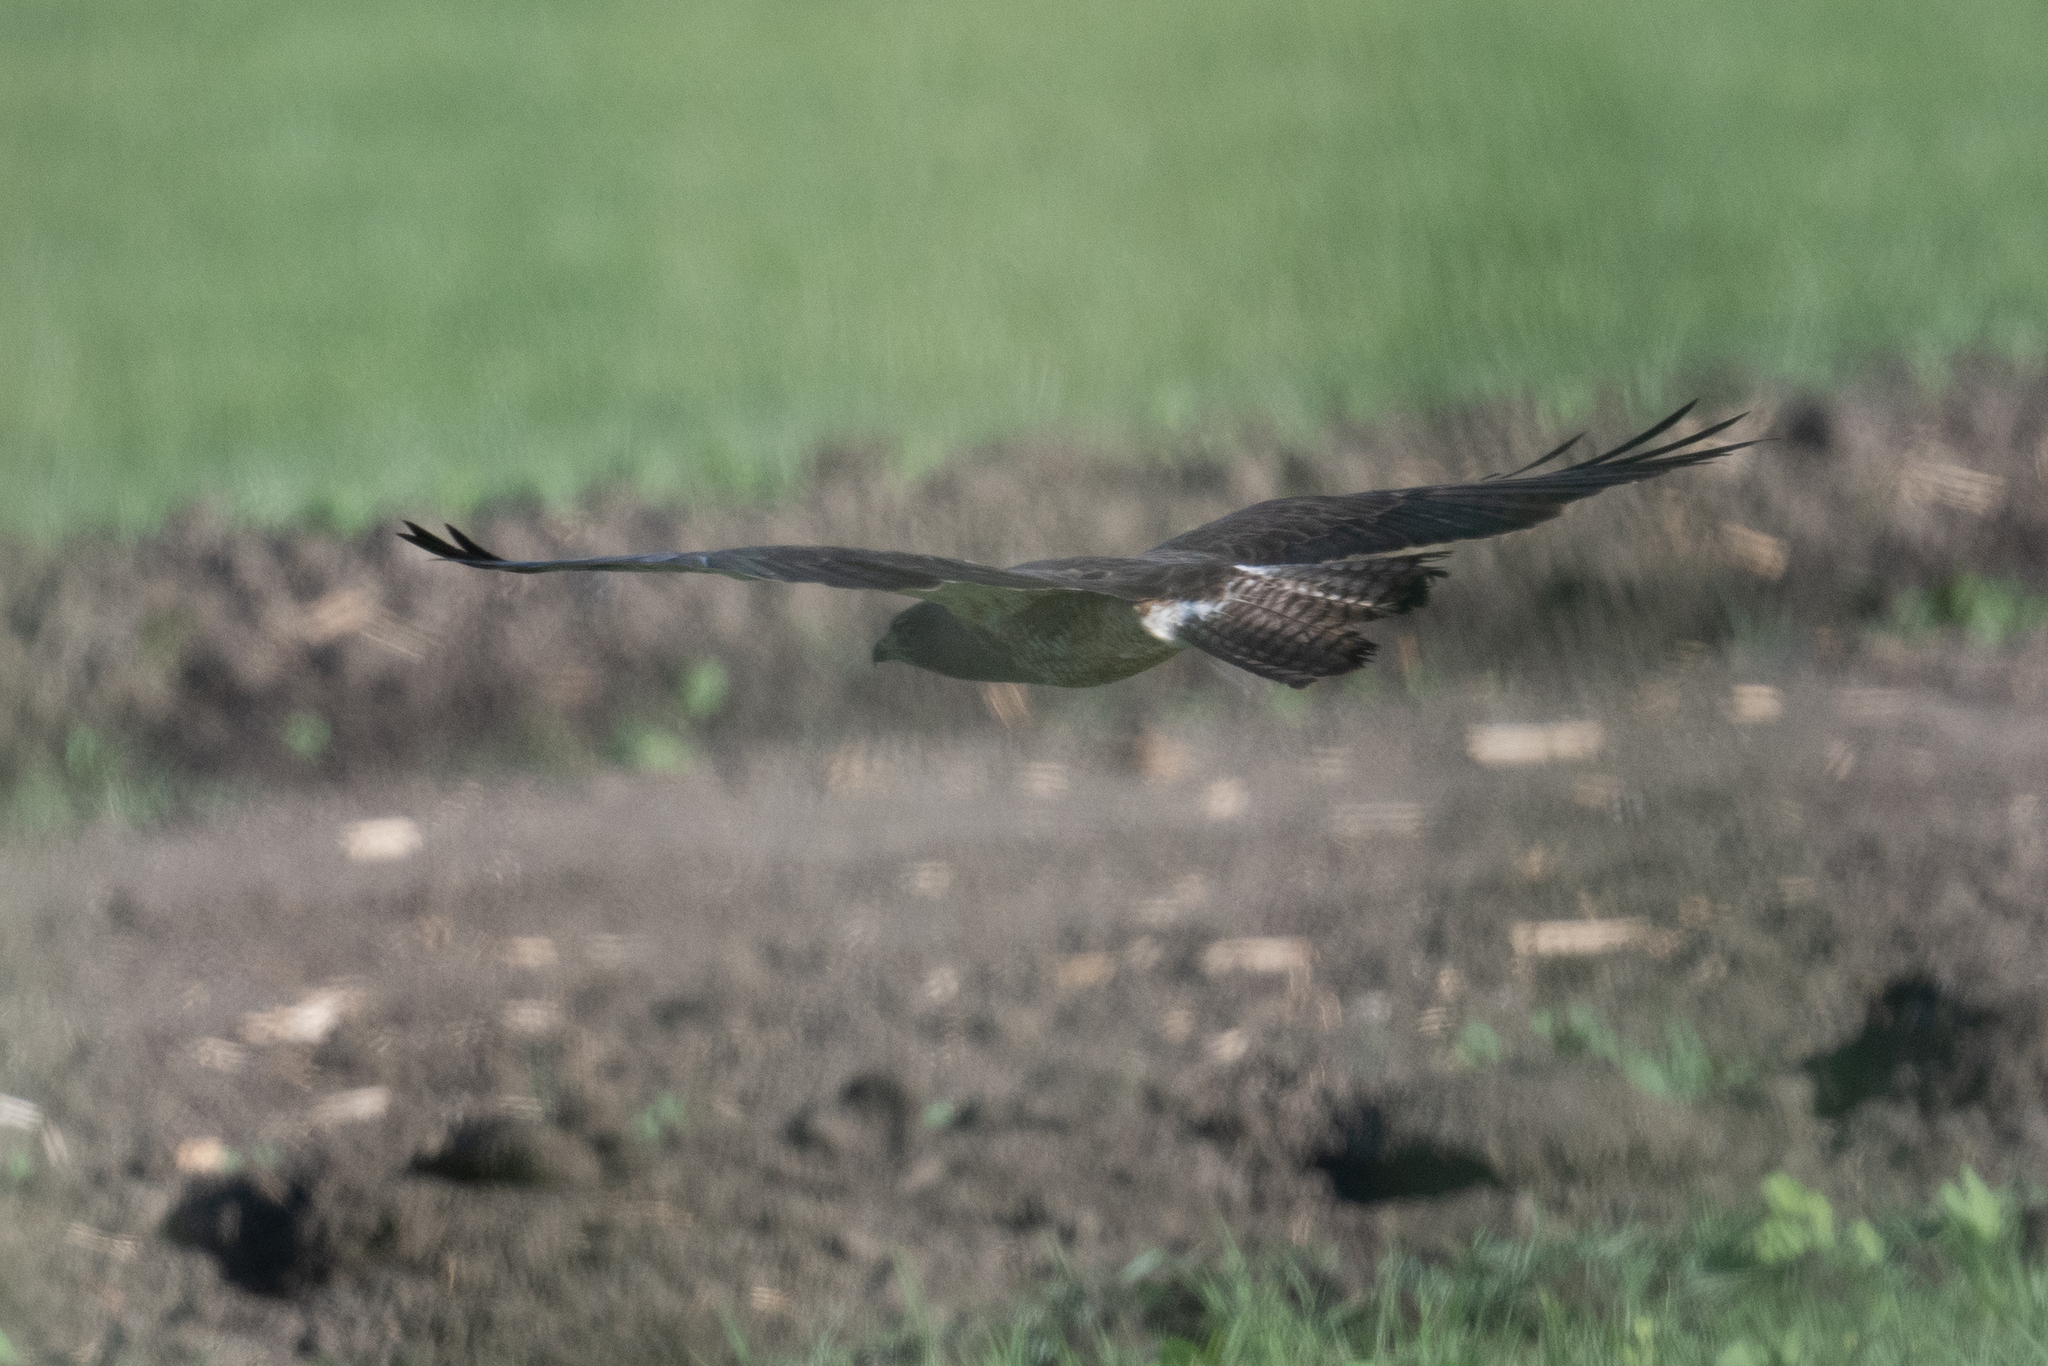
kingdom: Animalia
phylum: Chordata
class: Aves
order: Accipitriformes
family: Accipitridae
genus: Buteo
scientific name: Buteo swainsoni
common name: Swainson's hawk
